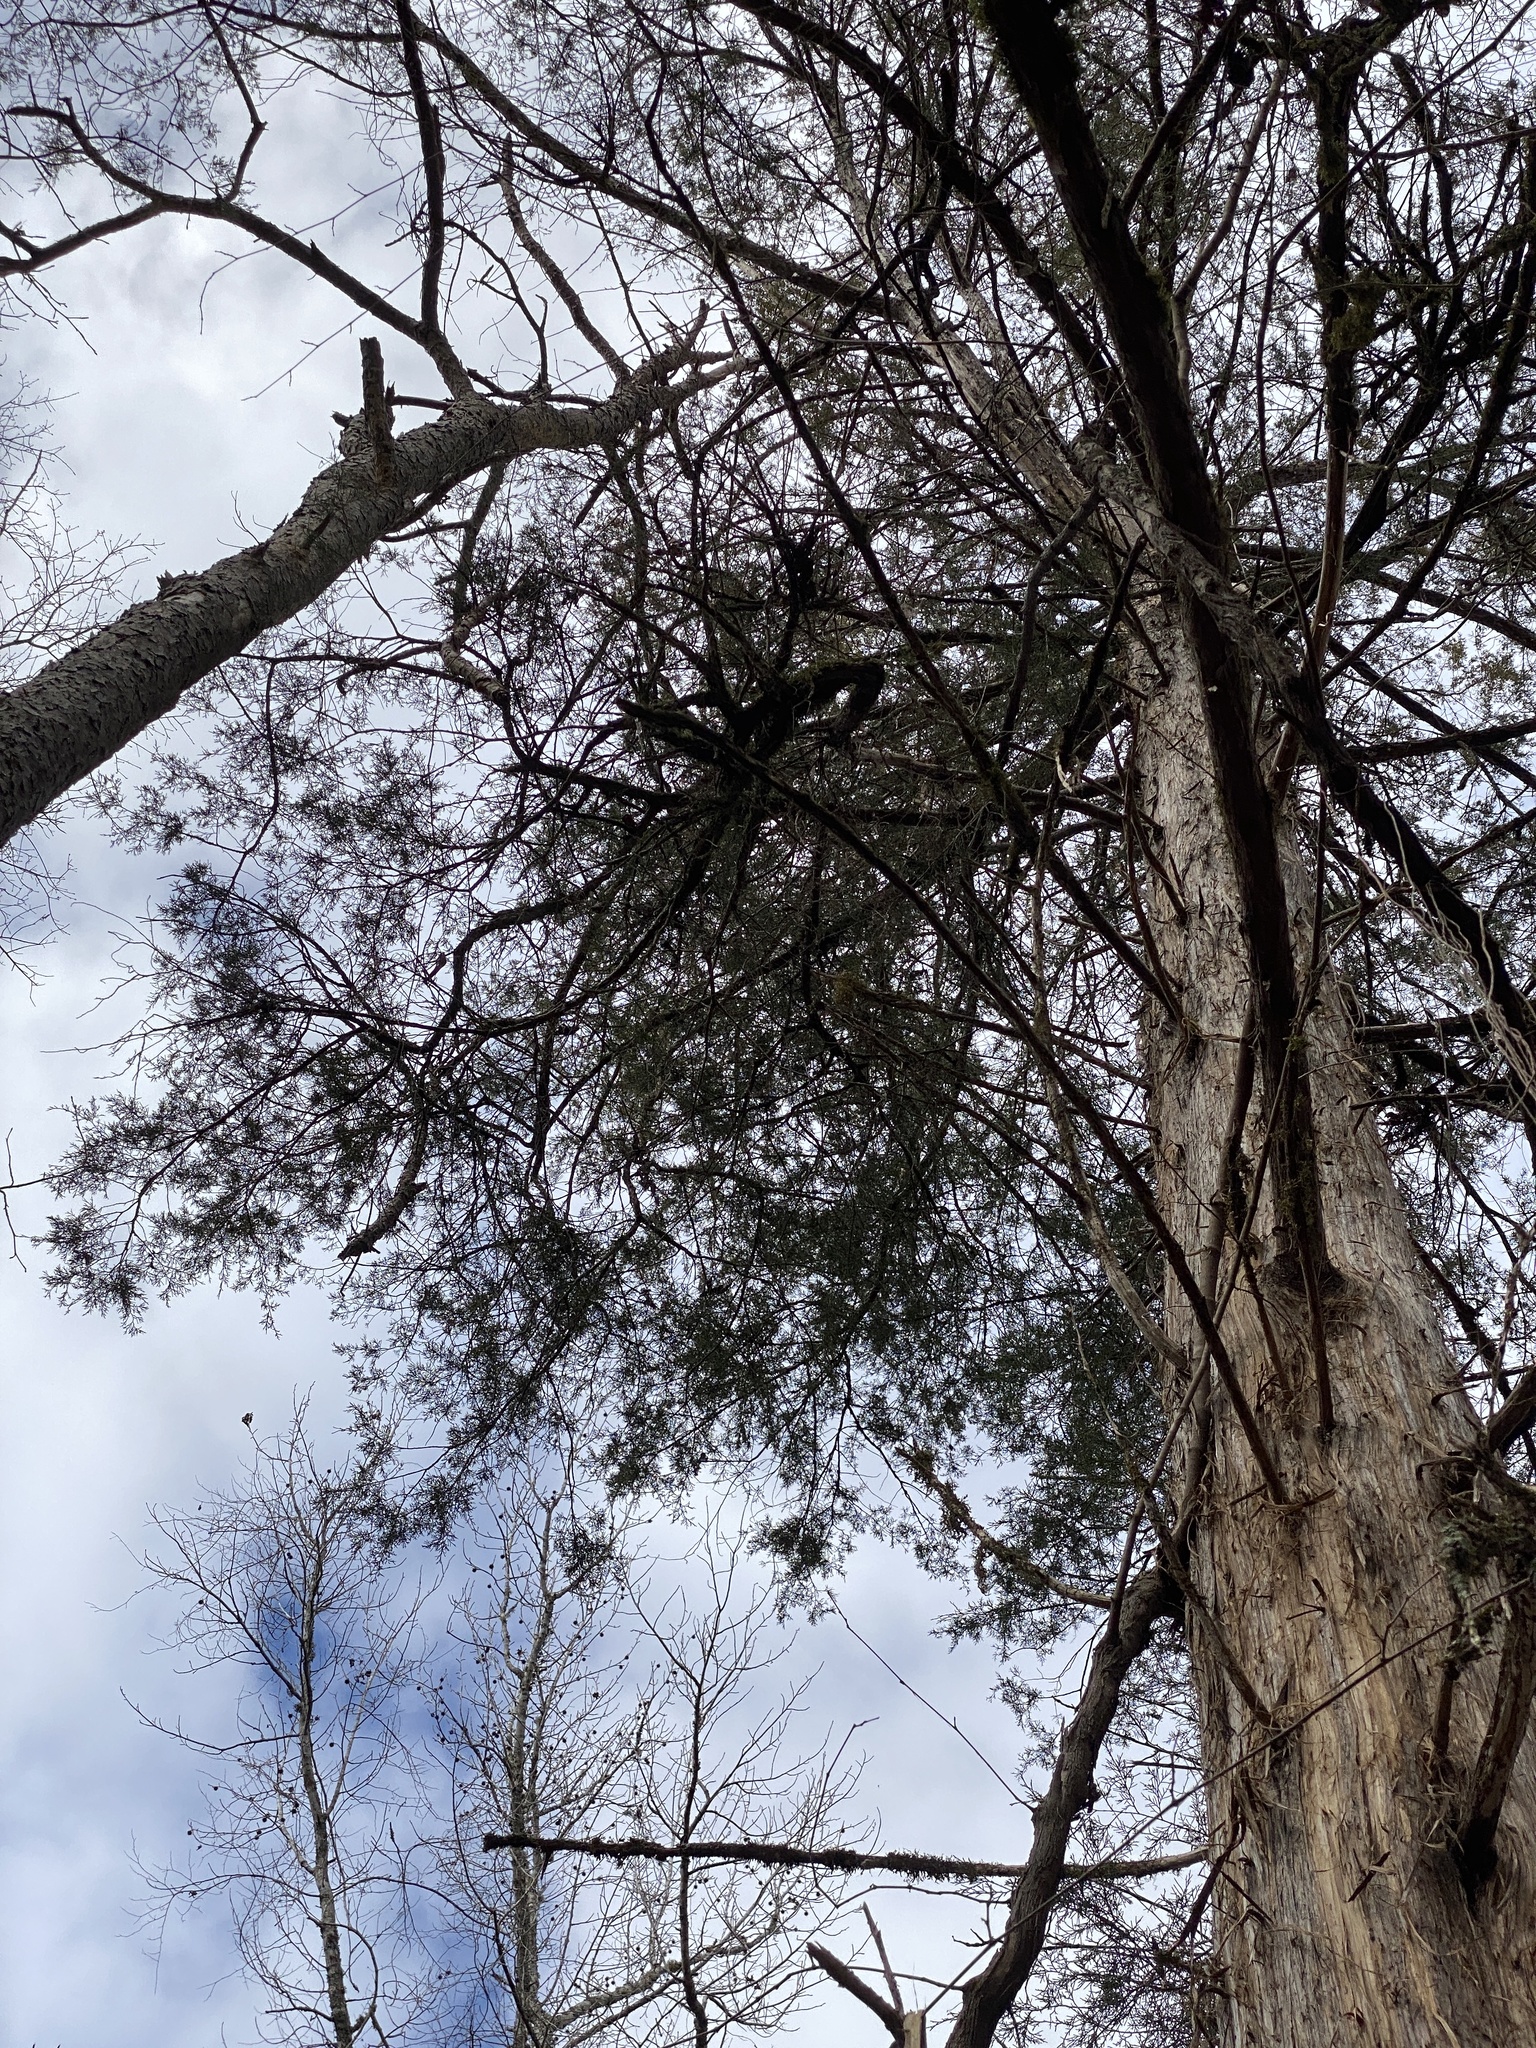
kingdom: Plantae
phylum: Tracheophyta
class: Pinopsida
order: Pinales
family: Cupressaceae
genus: Juniperus
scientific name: Juniperus virginiana
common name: Red juniper
